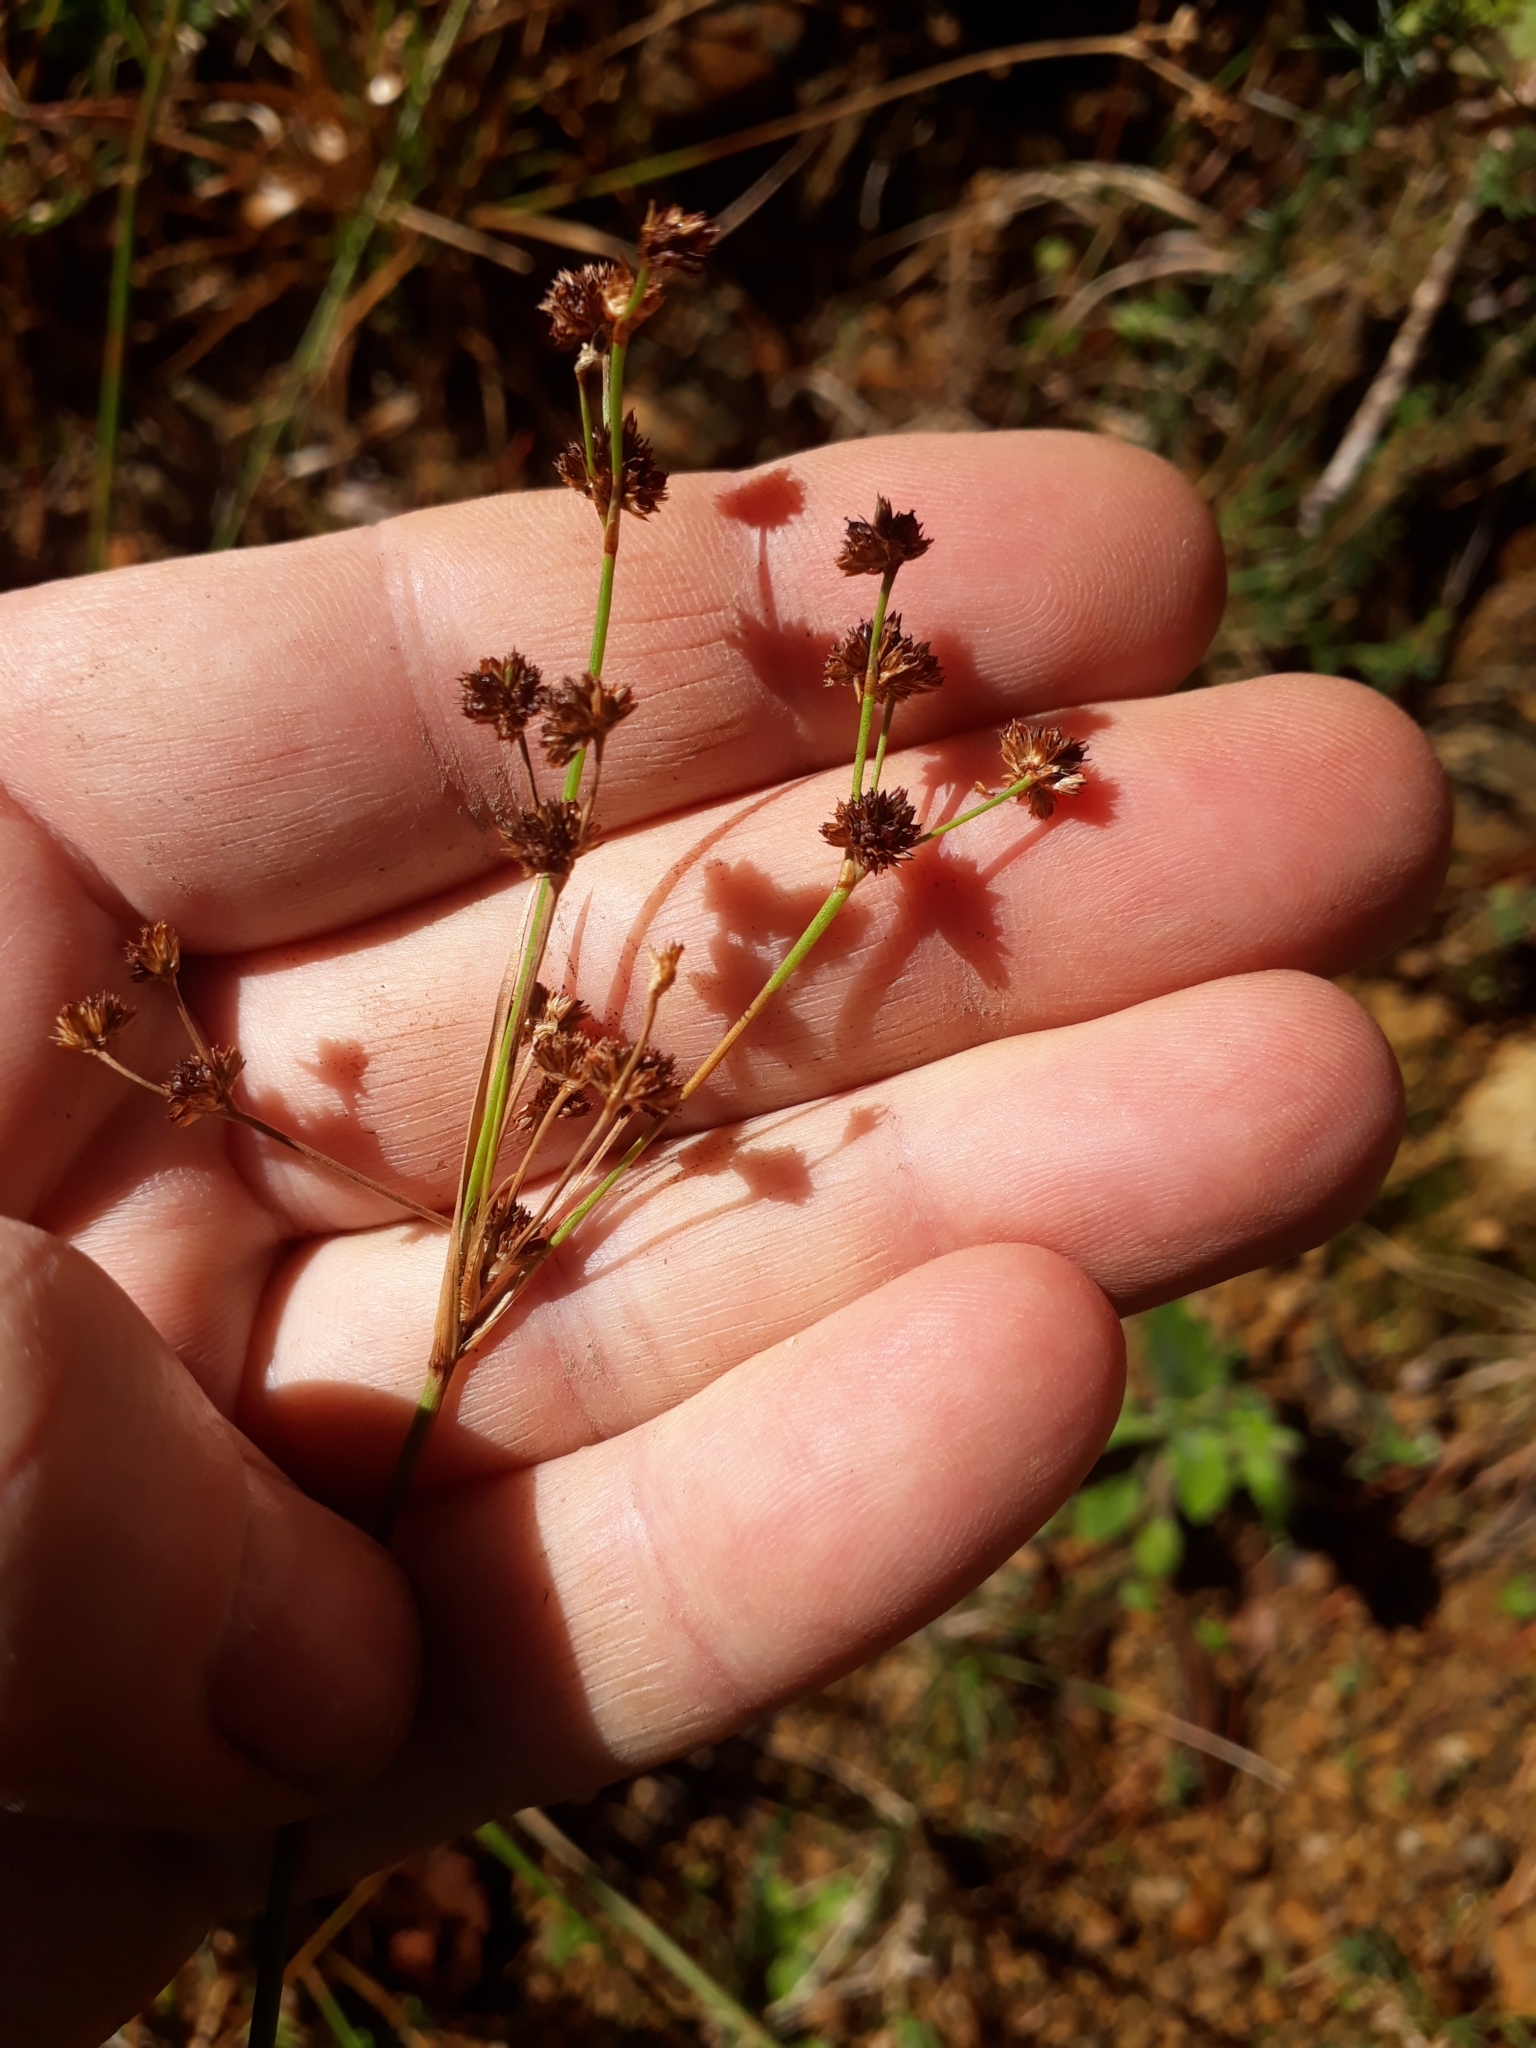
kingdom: Plantae
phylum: Tracheophyta
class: Liliopsida
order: Poales
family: Juncaceae
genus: Juncus
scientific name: Juncus planifolius
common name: Broadleaf rush
